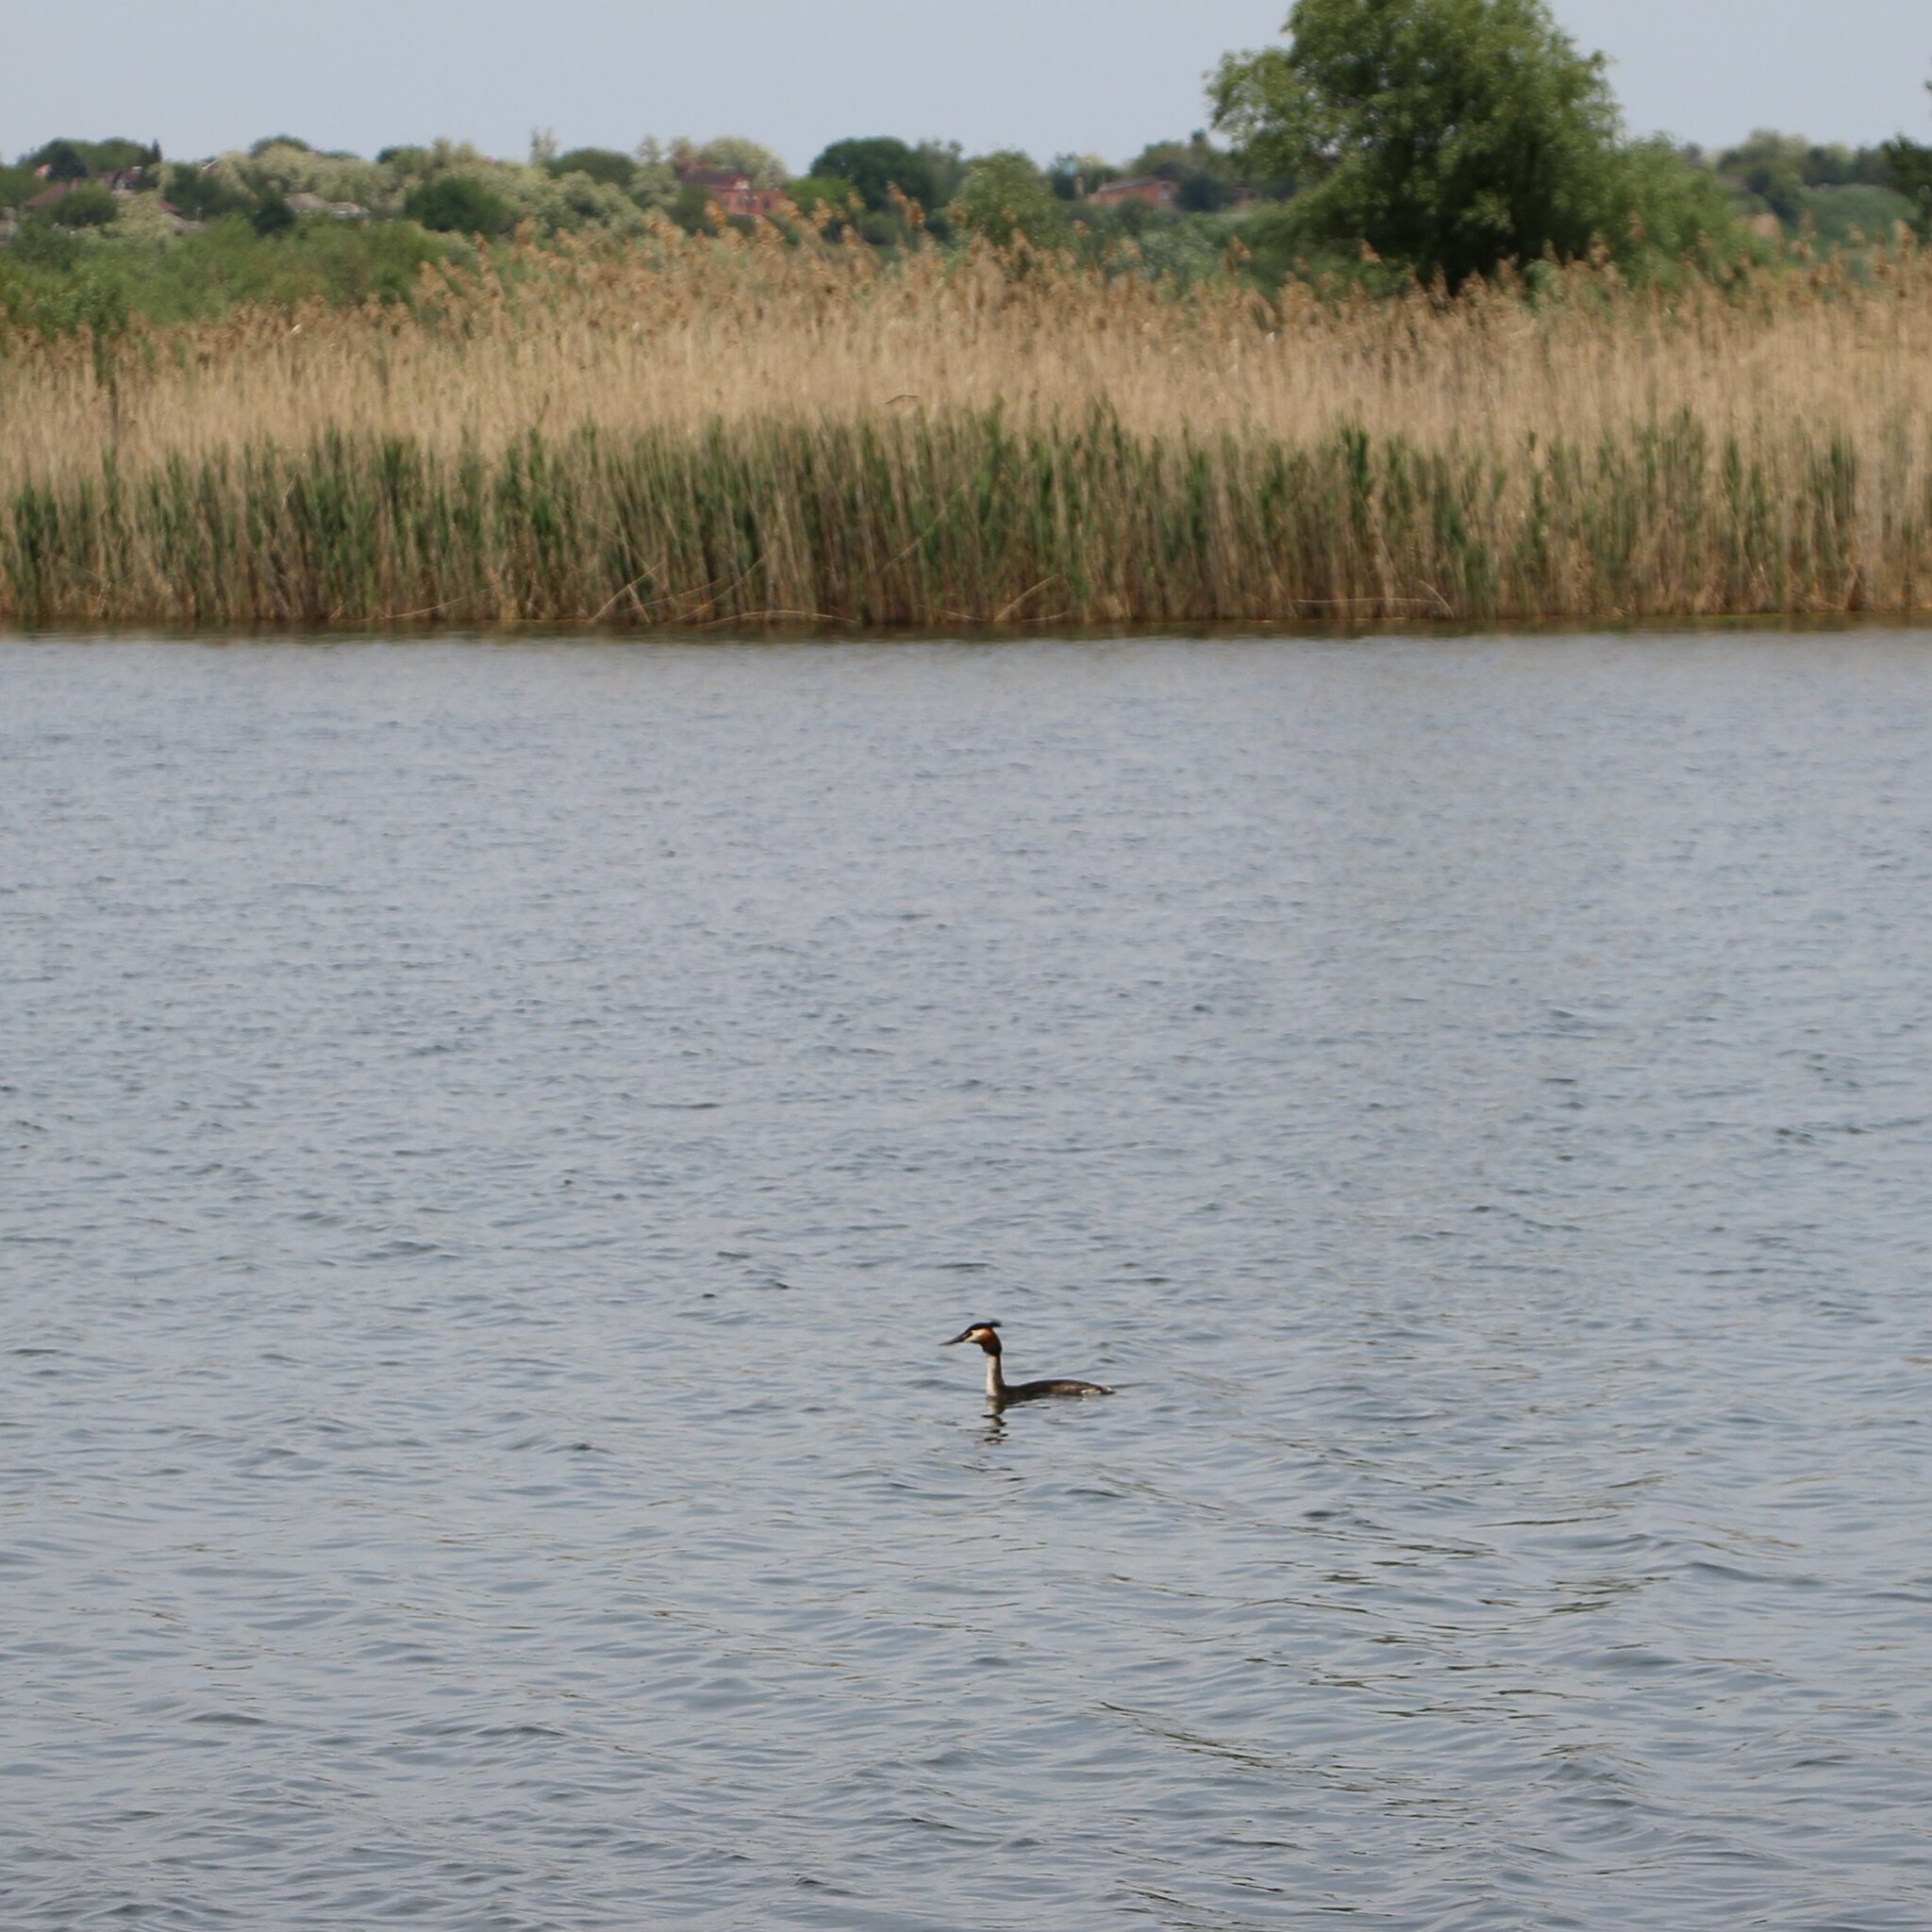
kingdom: Animalia
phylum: Chordata
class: Aves
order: Podicipediformes
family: Podicipedidae
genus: Podiceps
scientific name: Podiceps cristatus
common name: Great crested grebe
